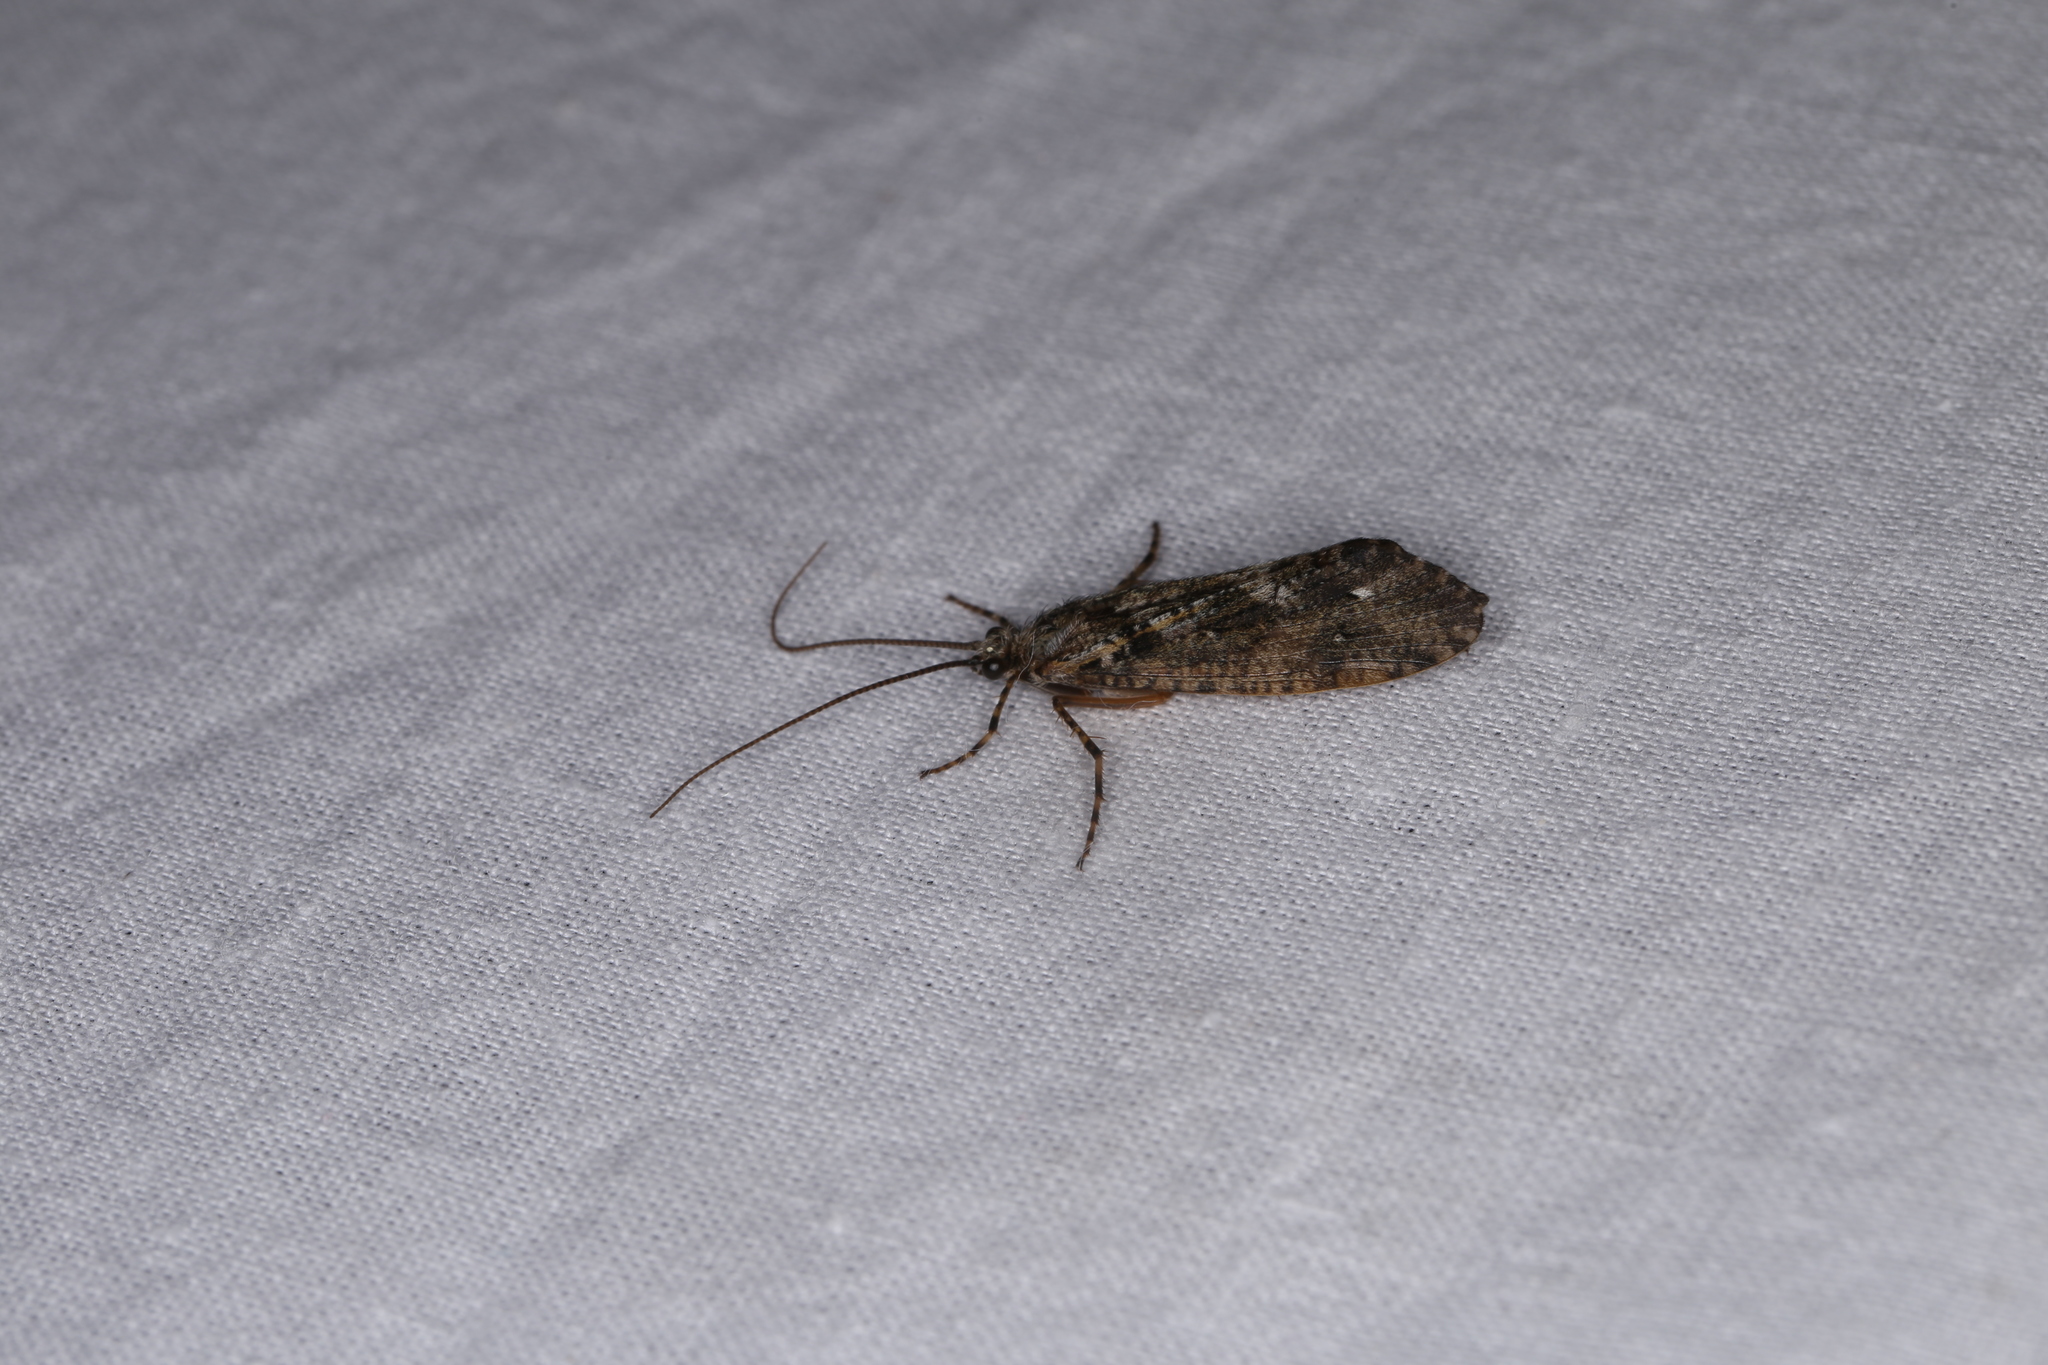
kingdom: Animalia
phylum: Arthropoda
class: Insecta
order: Trichoptera
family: Phryganeidae
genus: Agrypnia
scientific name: Agrypnia varia
